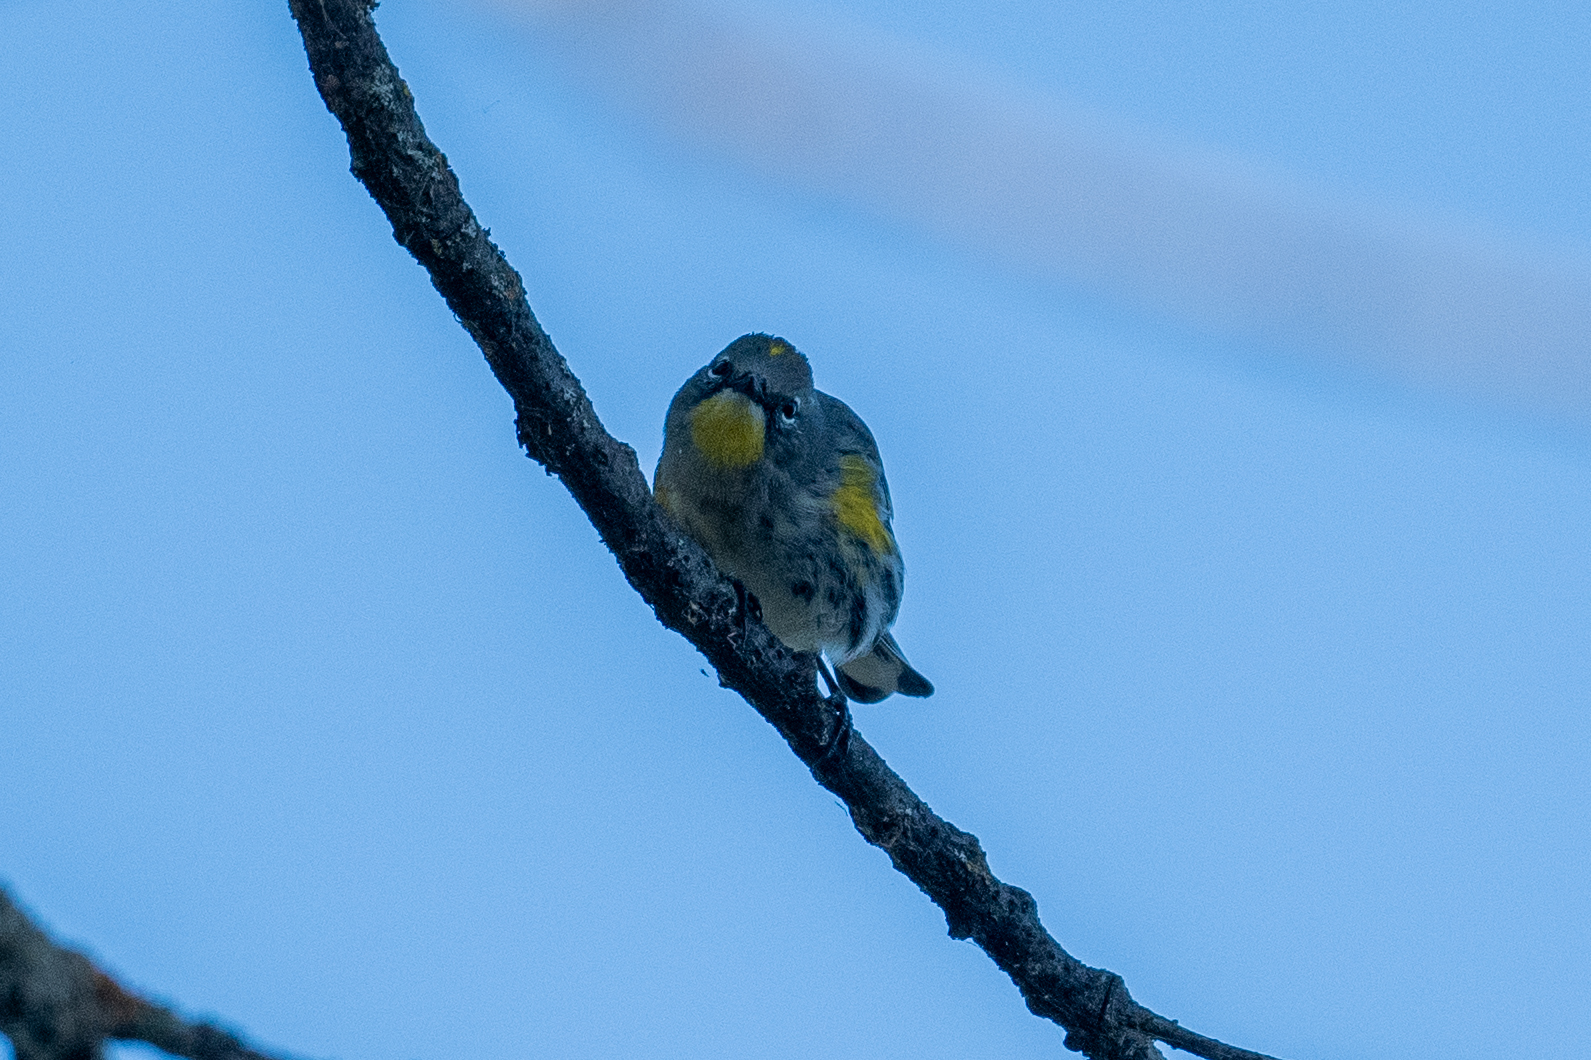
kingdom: Animalia
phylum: Chordata
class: Aves
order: Passeriformes
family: Parulidae
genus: Setophaga
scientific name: Setophaga coronata
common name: Myrtle warbler
